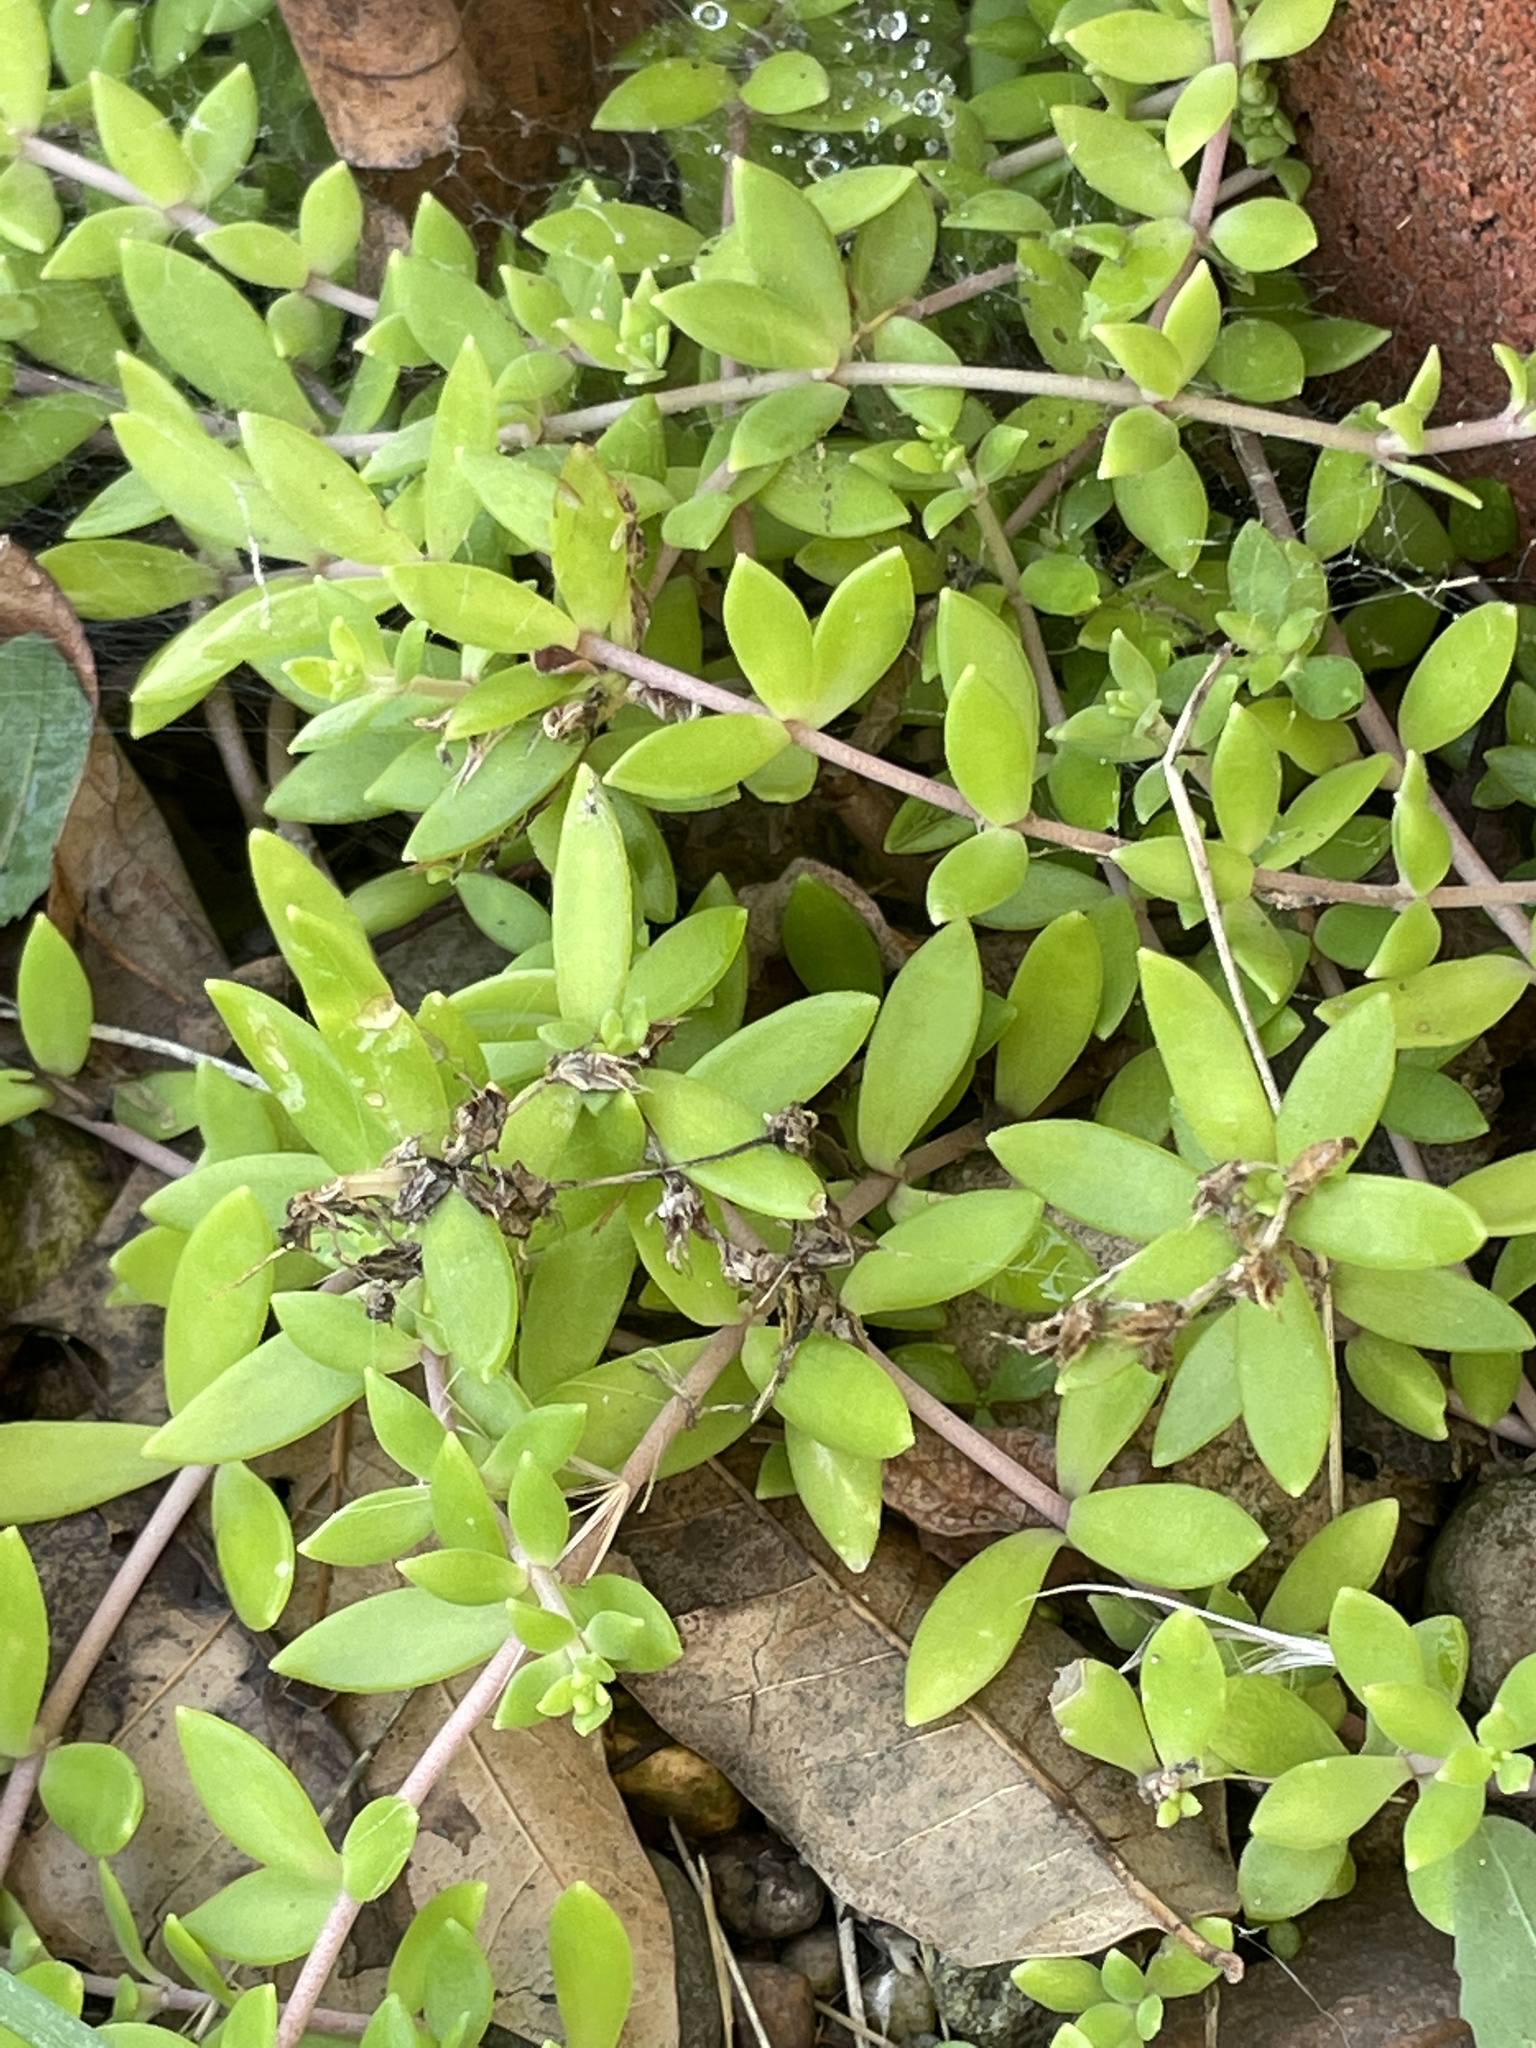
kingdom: Plantae
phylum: Tracheophyta
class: Magnoliopsida
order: Saxifragales
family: Crassulaceae
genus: Sedum
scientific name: Sedum sarmentosum
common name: Stringy stonecrop
